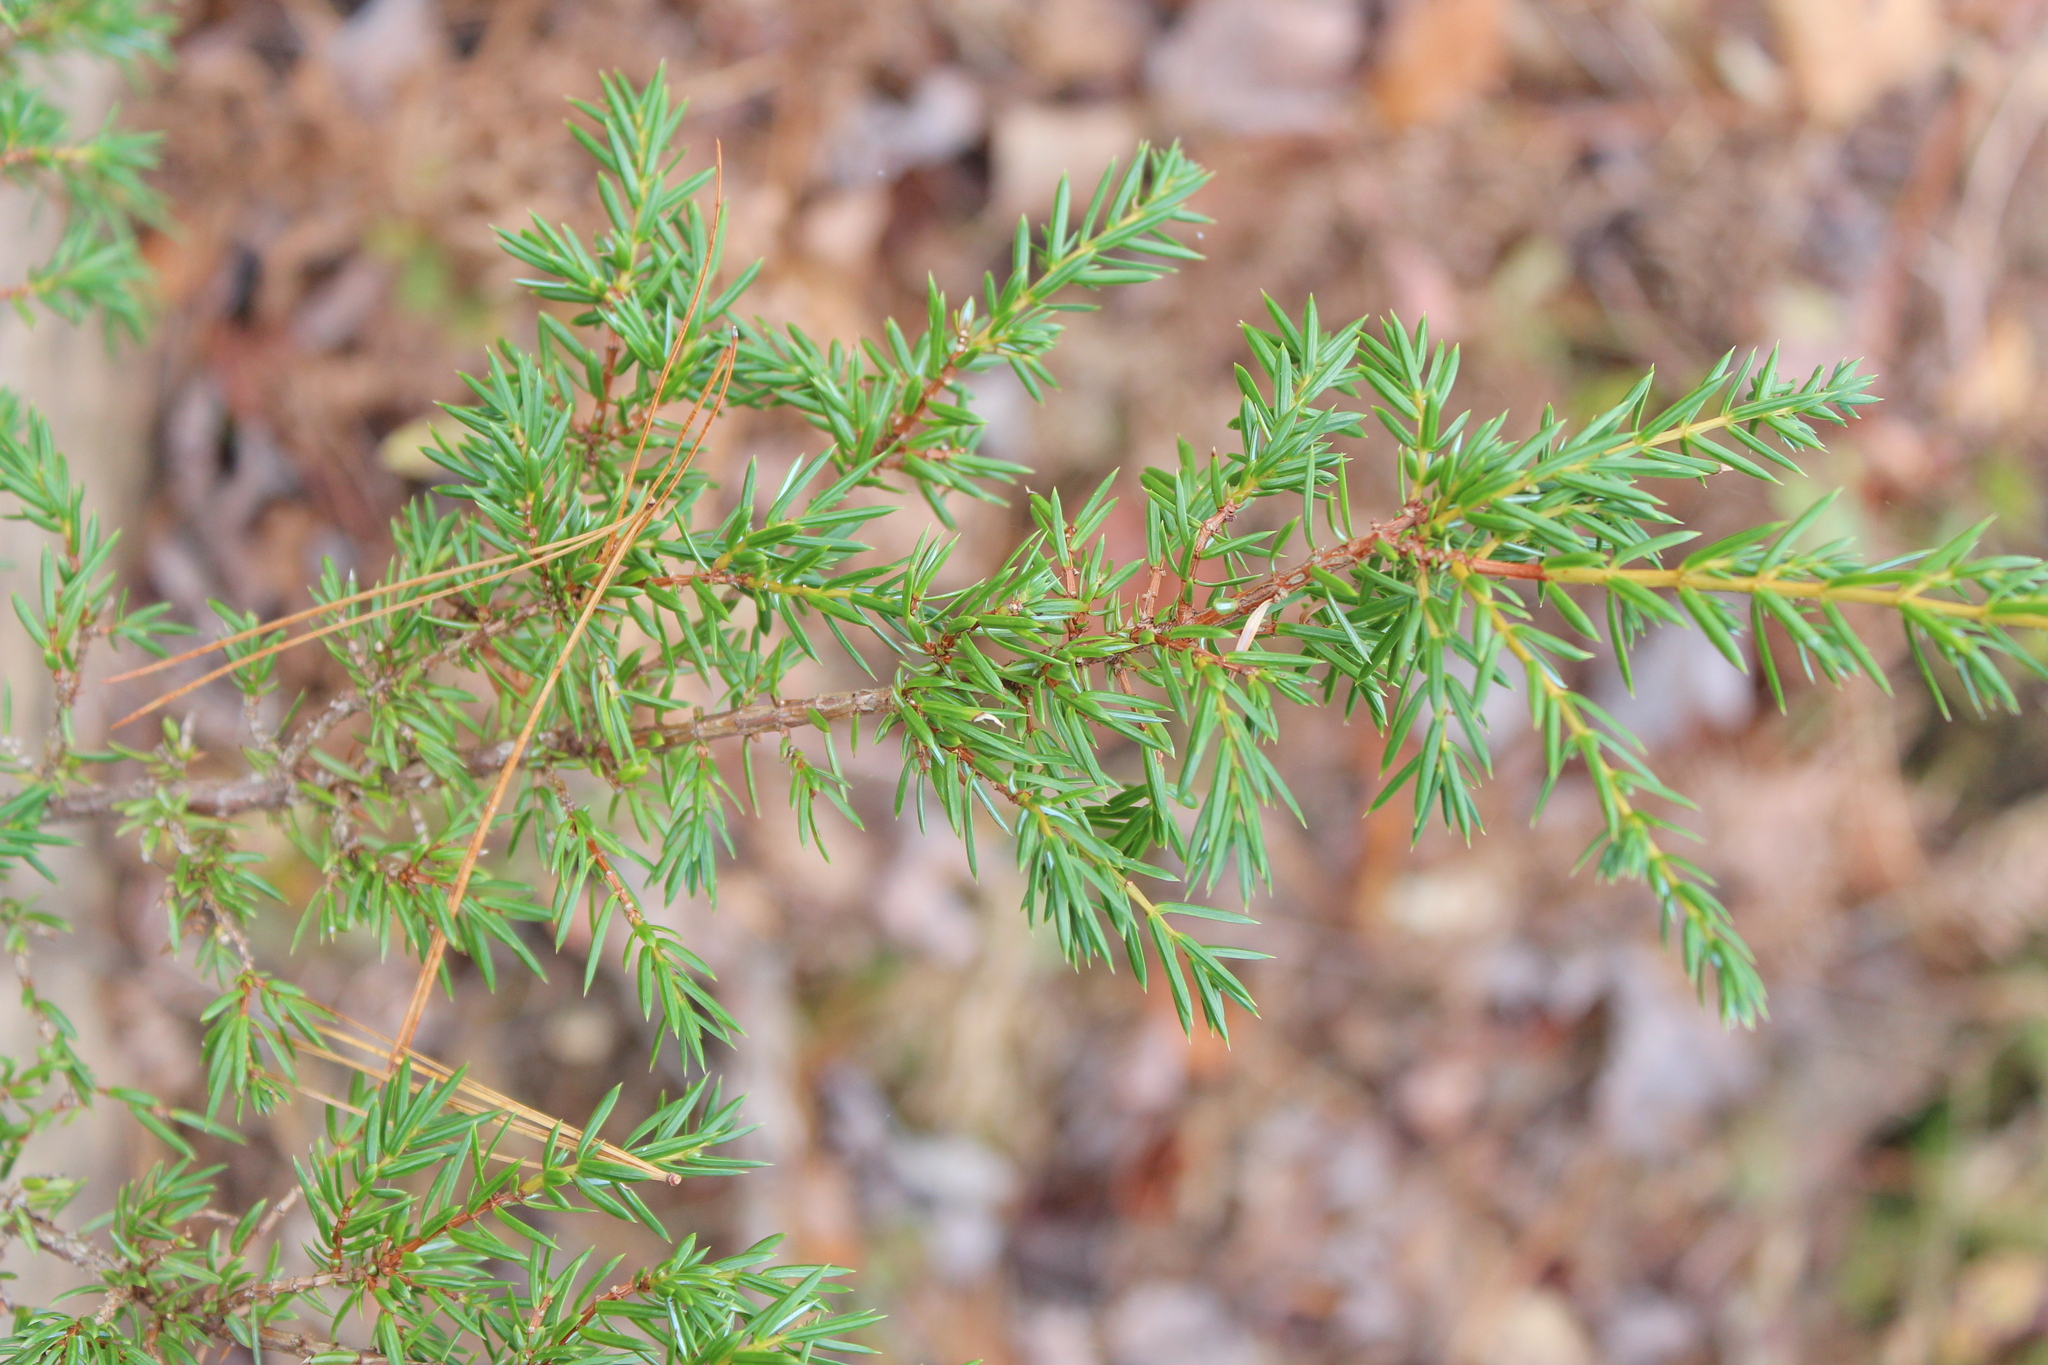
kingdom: Plantae
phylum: Tracheophyta
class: Pinopsida
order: Pinales
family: Cupressaceae
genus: Juniperus
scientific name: Juniperus communis
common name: Common juniper
